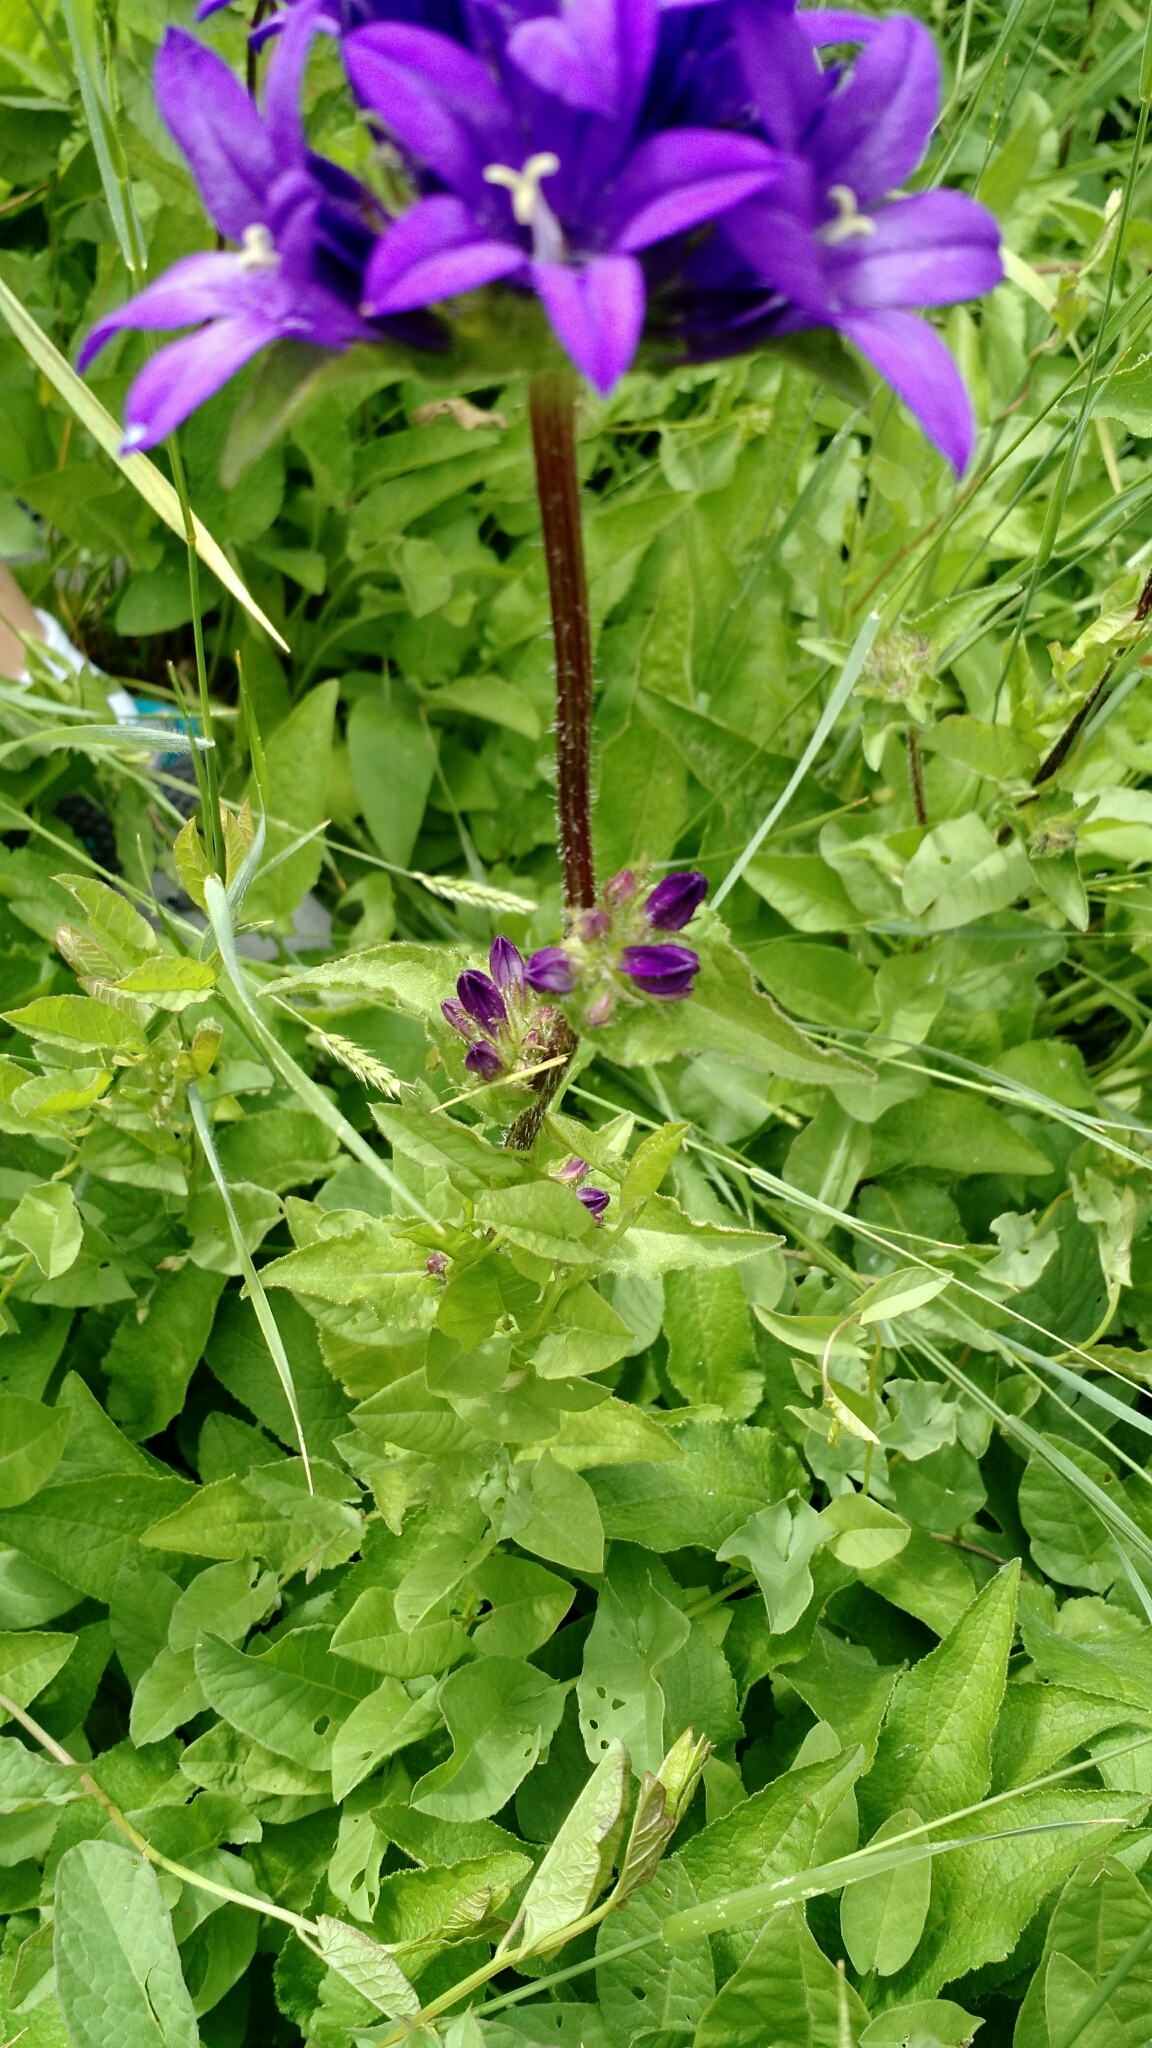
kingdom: Plantae
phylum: Tracheophyta
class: Magnoliopsida
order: Asterales
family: Campanulaceae
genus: Campanula
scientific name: Campanula glomerata
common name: Clustered bellflower
